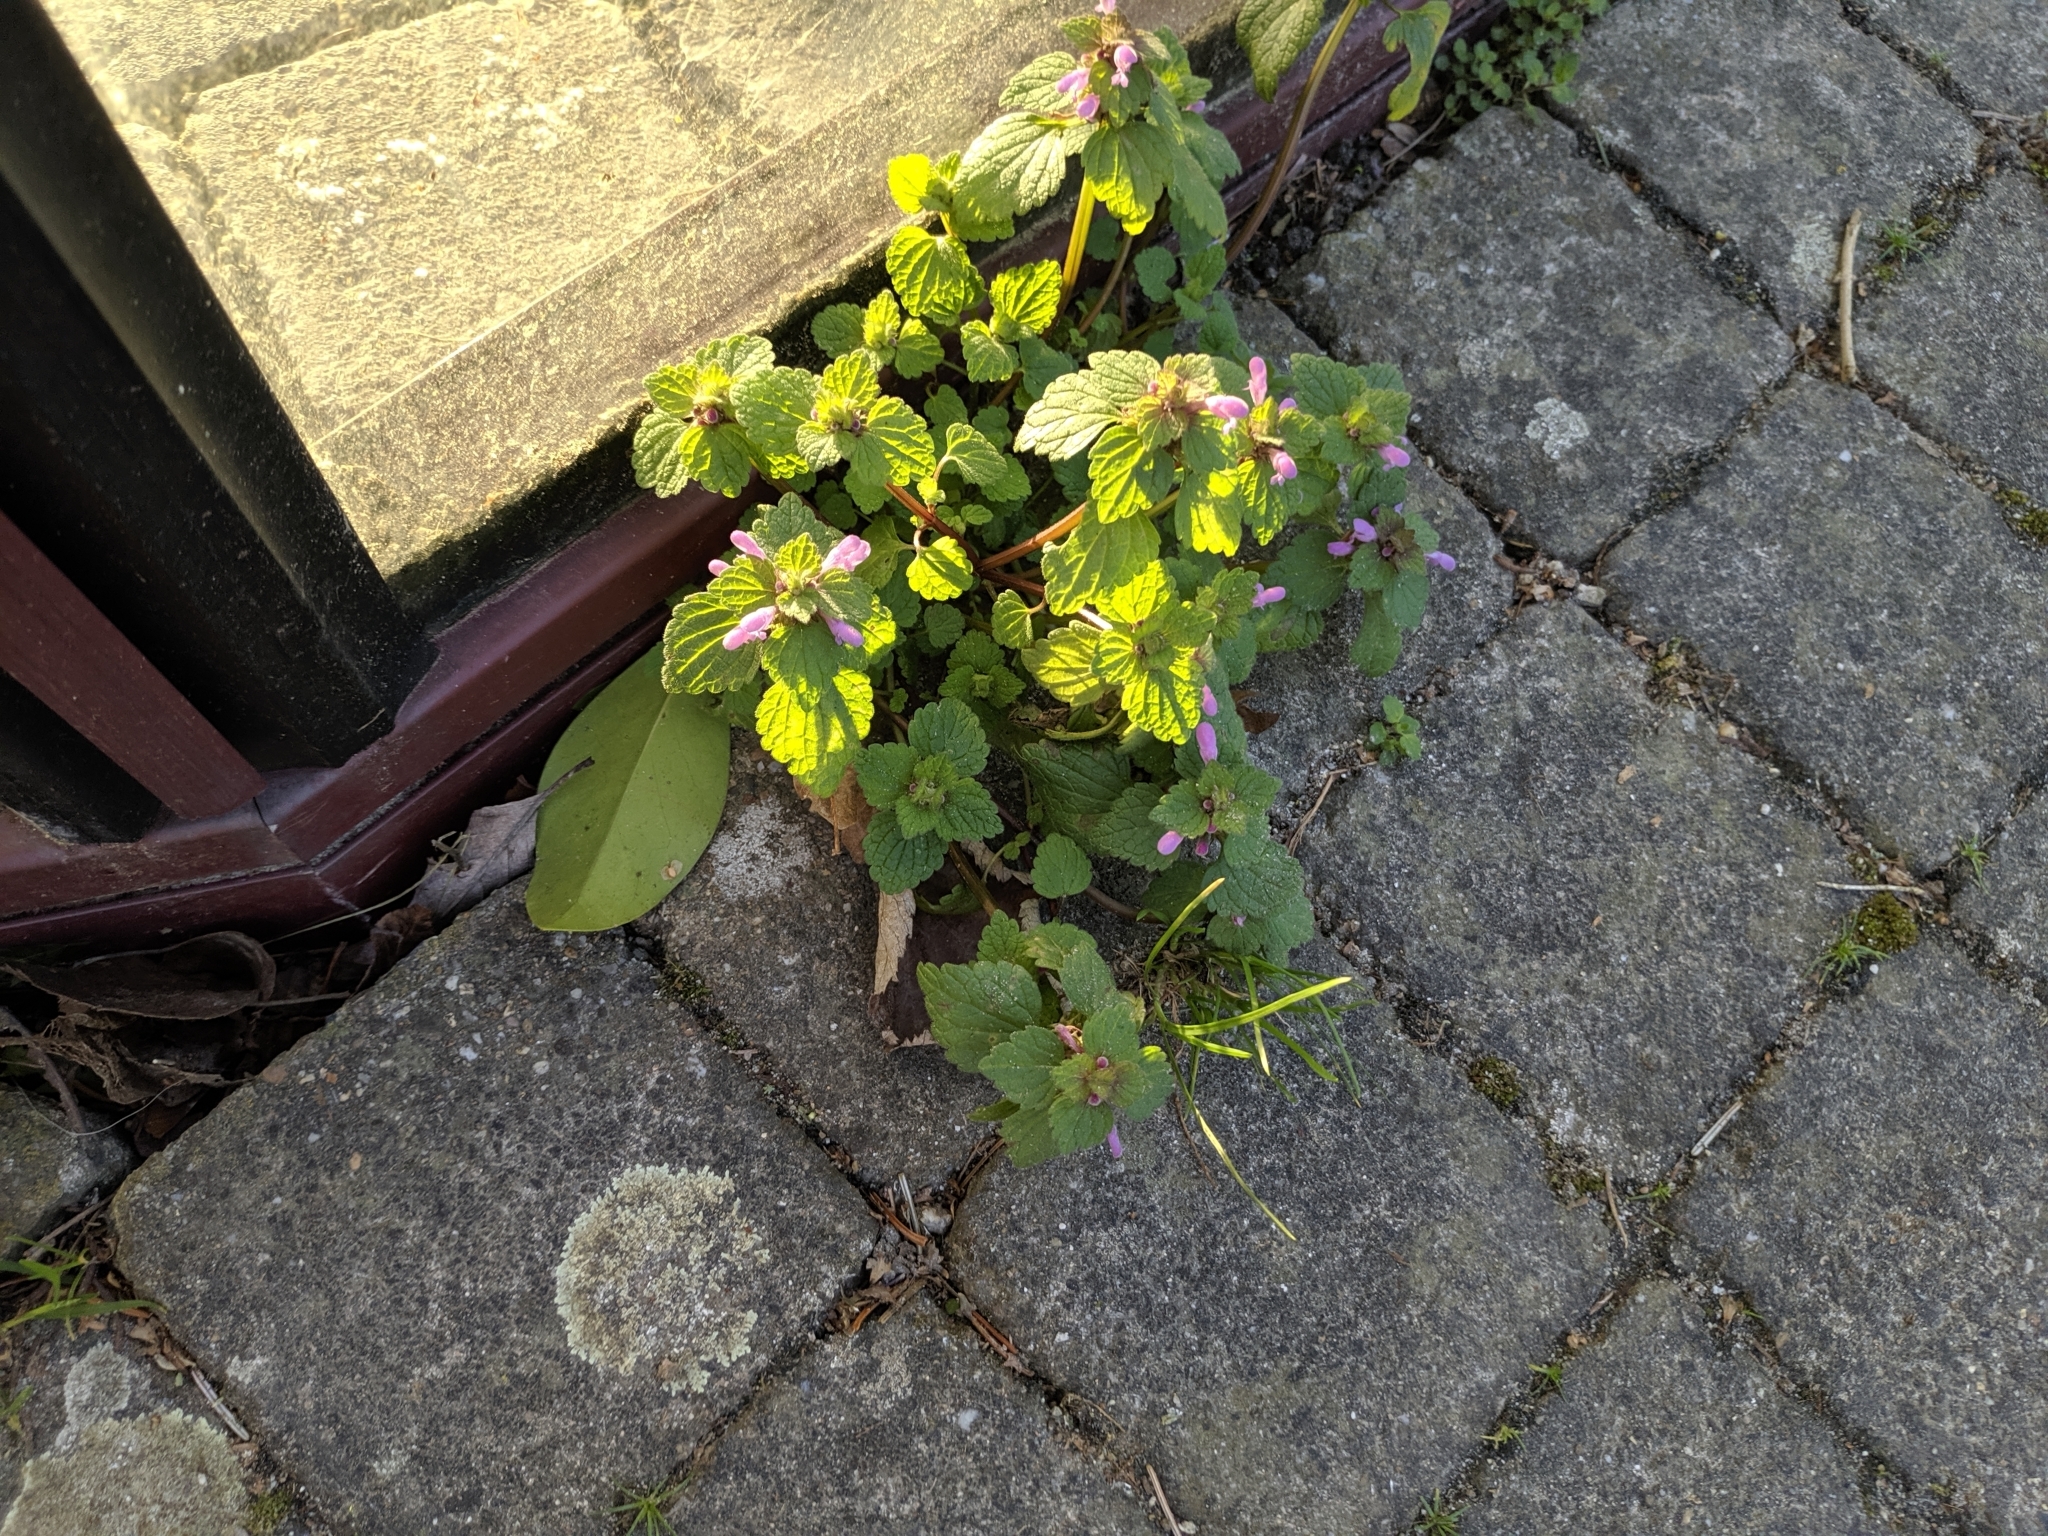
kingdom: Plantae
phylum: Tracheophyta
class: Magnoliopsida
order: Lamiales
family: Lamiaceae
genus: Lamium
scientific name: Lamium purpureum
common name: Red dead-nettle
